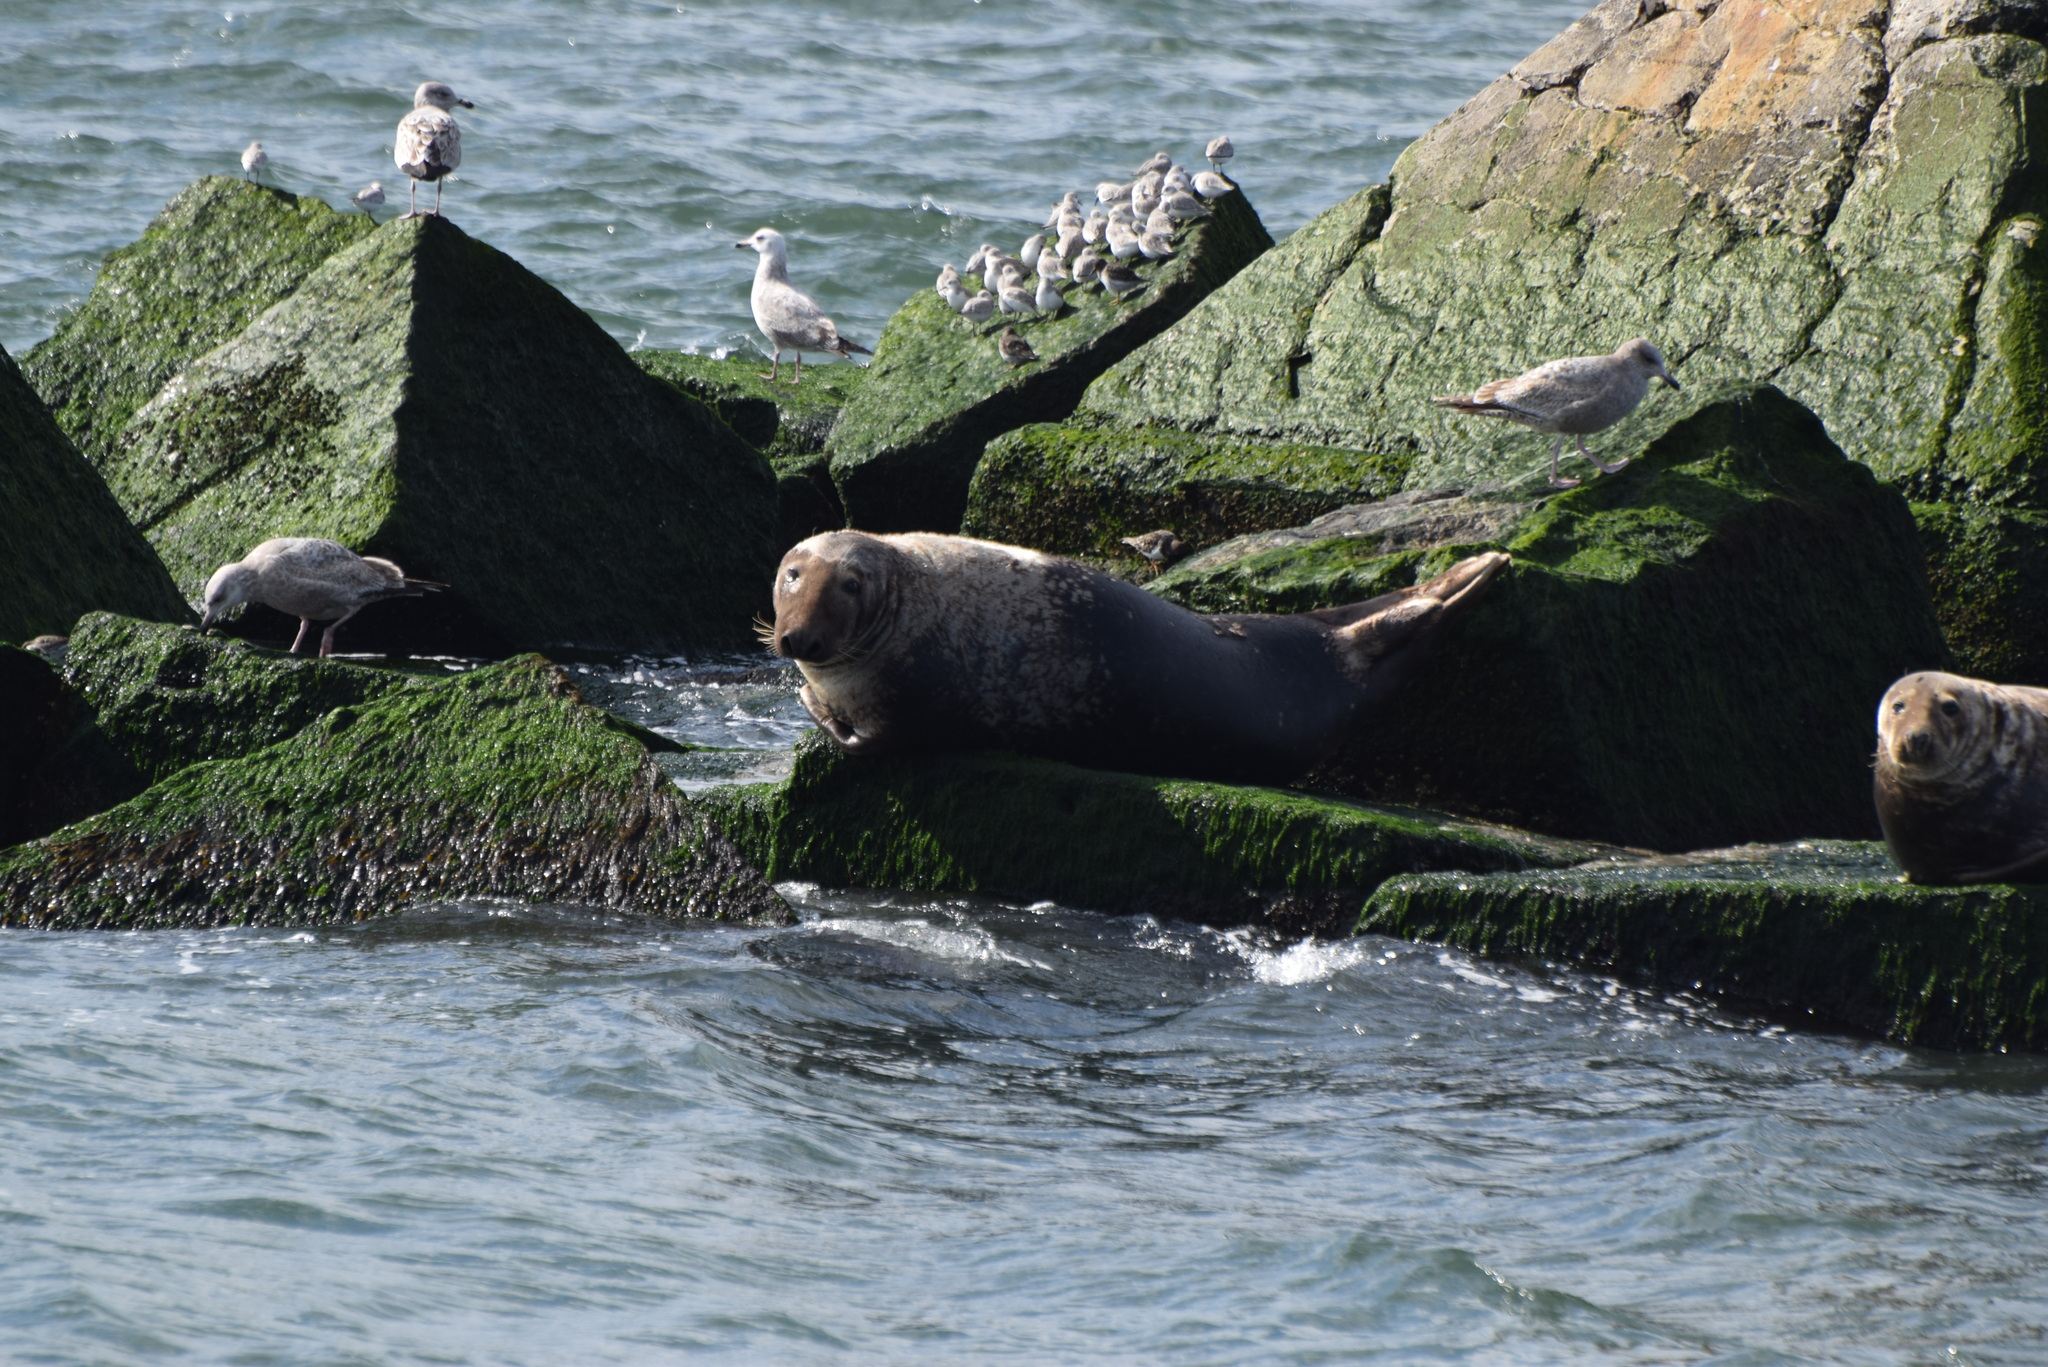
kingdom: Animalia
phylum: Chordata
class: Aves
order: Charadriiformes
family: Scolopacidae
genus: Arenaria
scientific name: Arenaria interpres
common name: Ruddy turnstone
